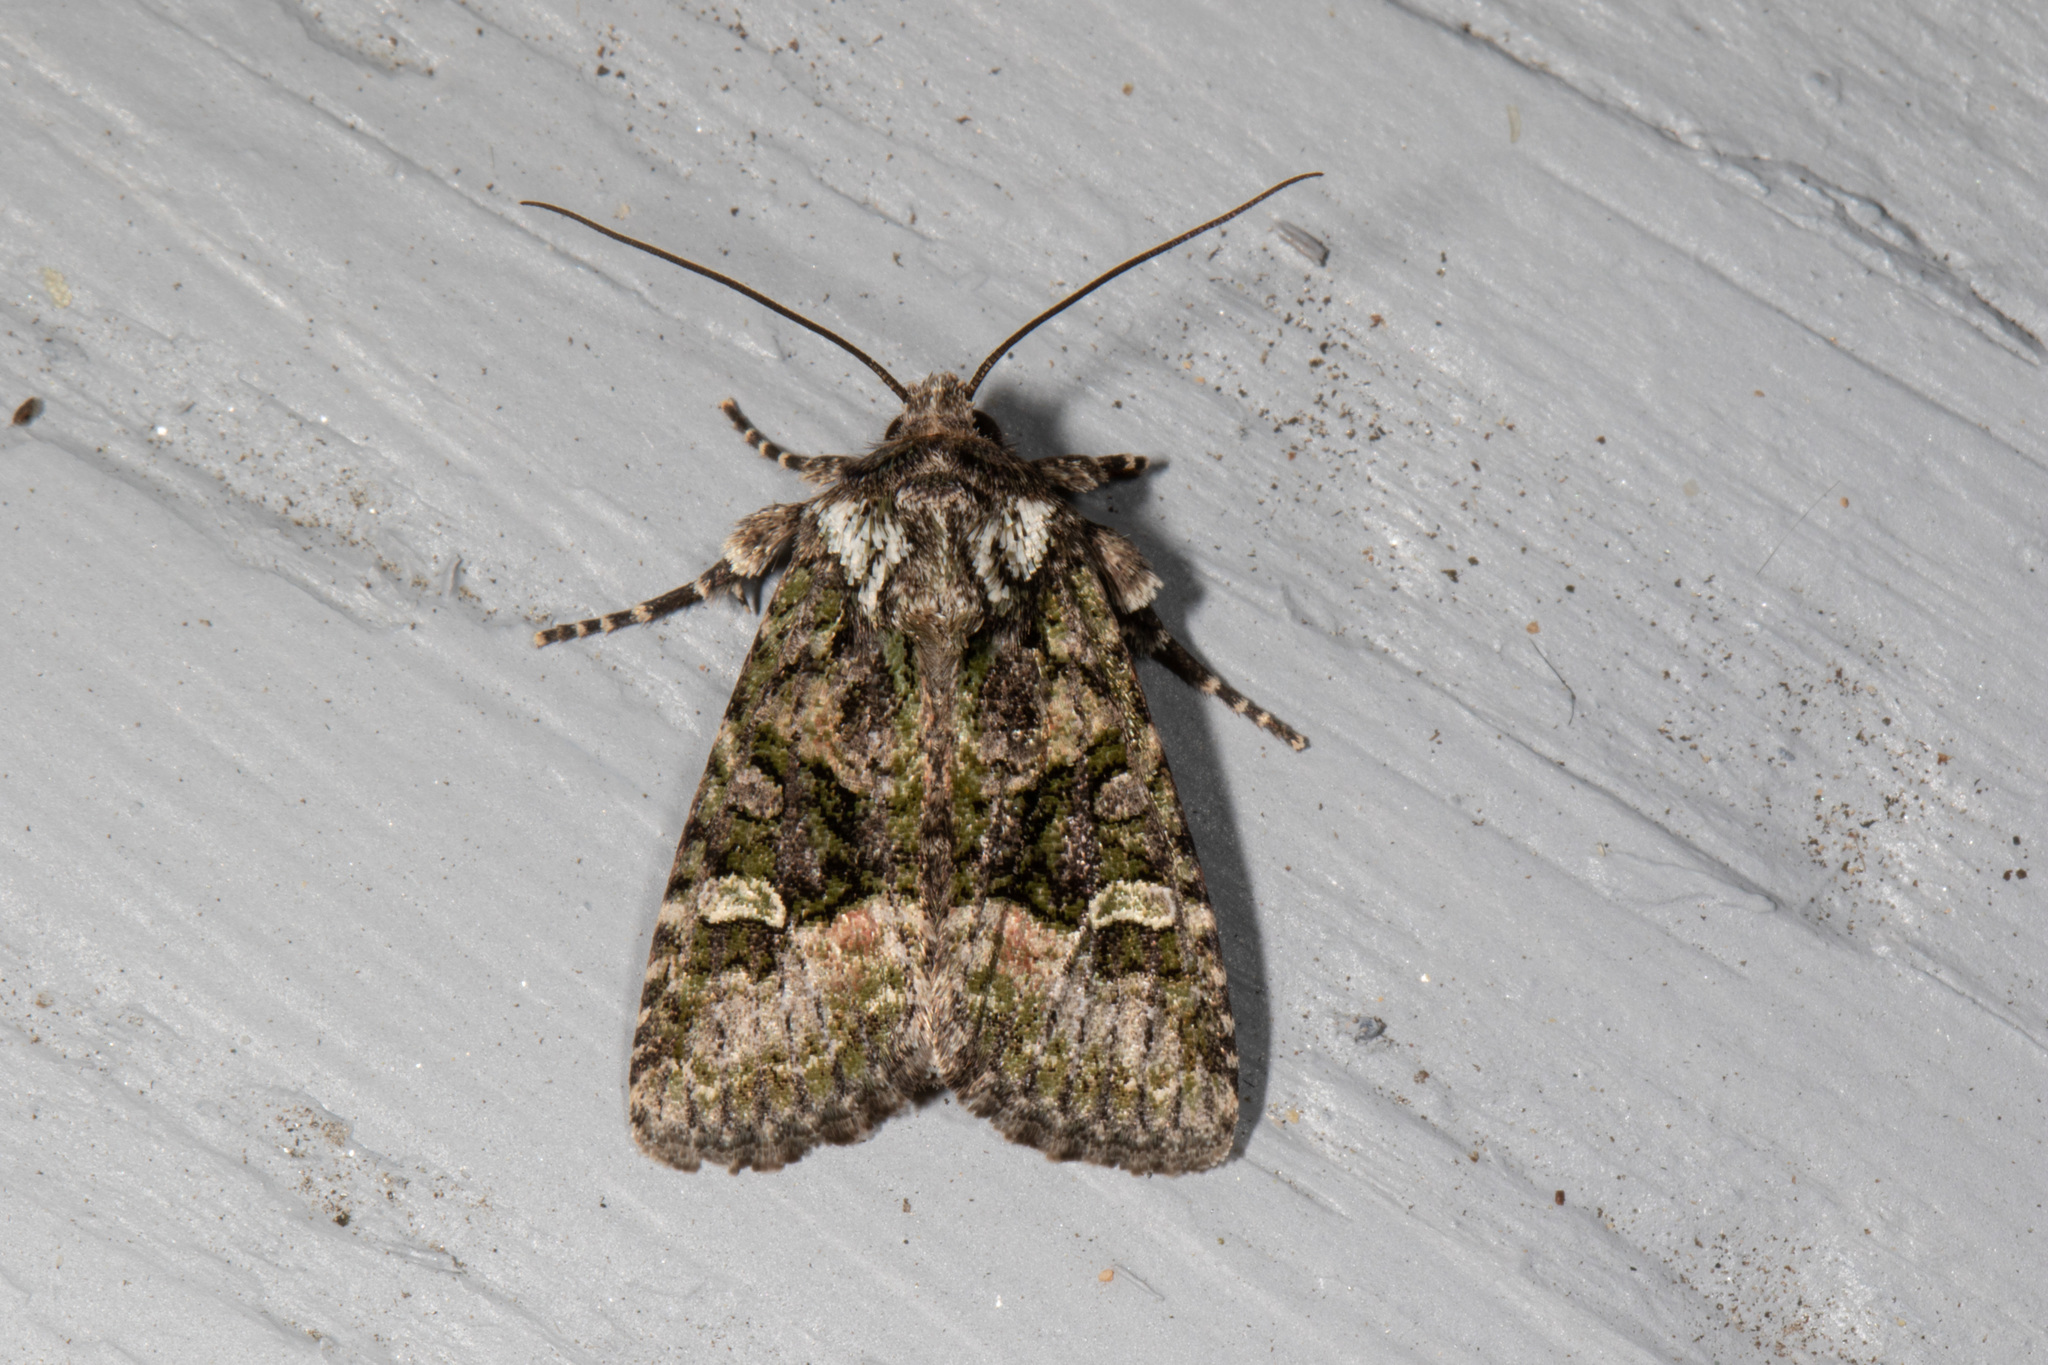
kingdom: Animalia
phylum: Arthropoda
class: Insecta
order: Lepidoptera
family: Noctuidae
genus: Lacinipolia
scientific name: Lacinipolia olivacea
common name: Olive arches moth
